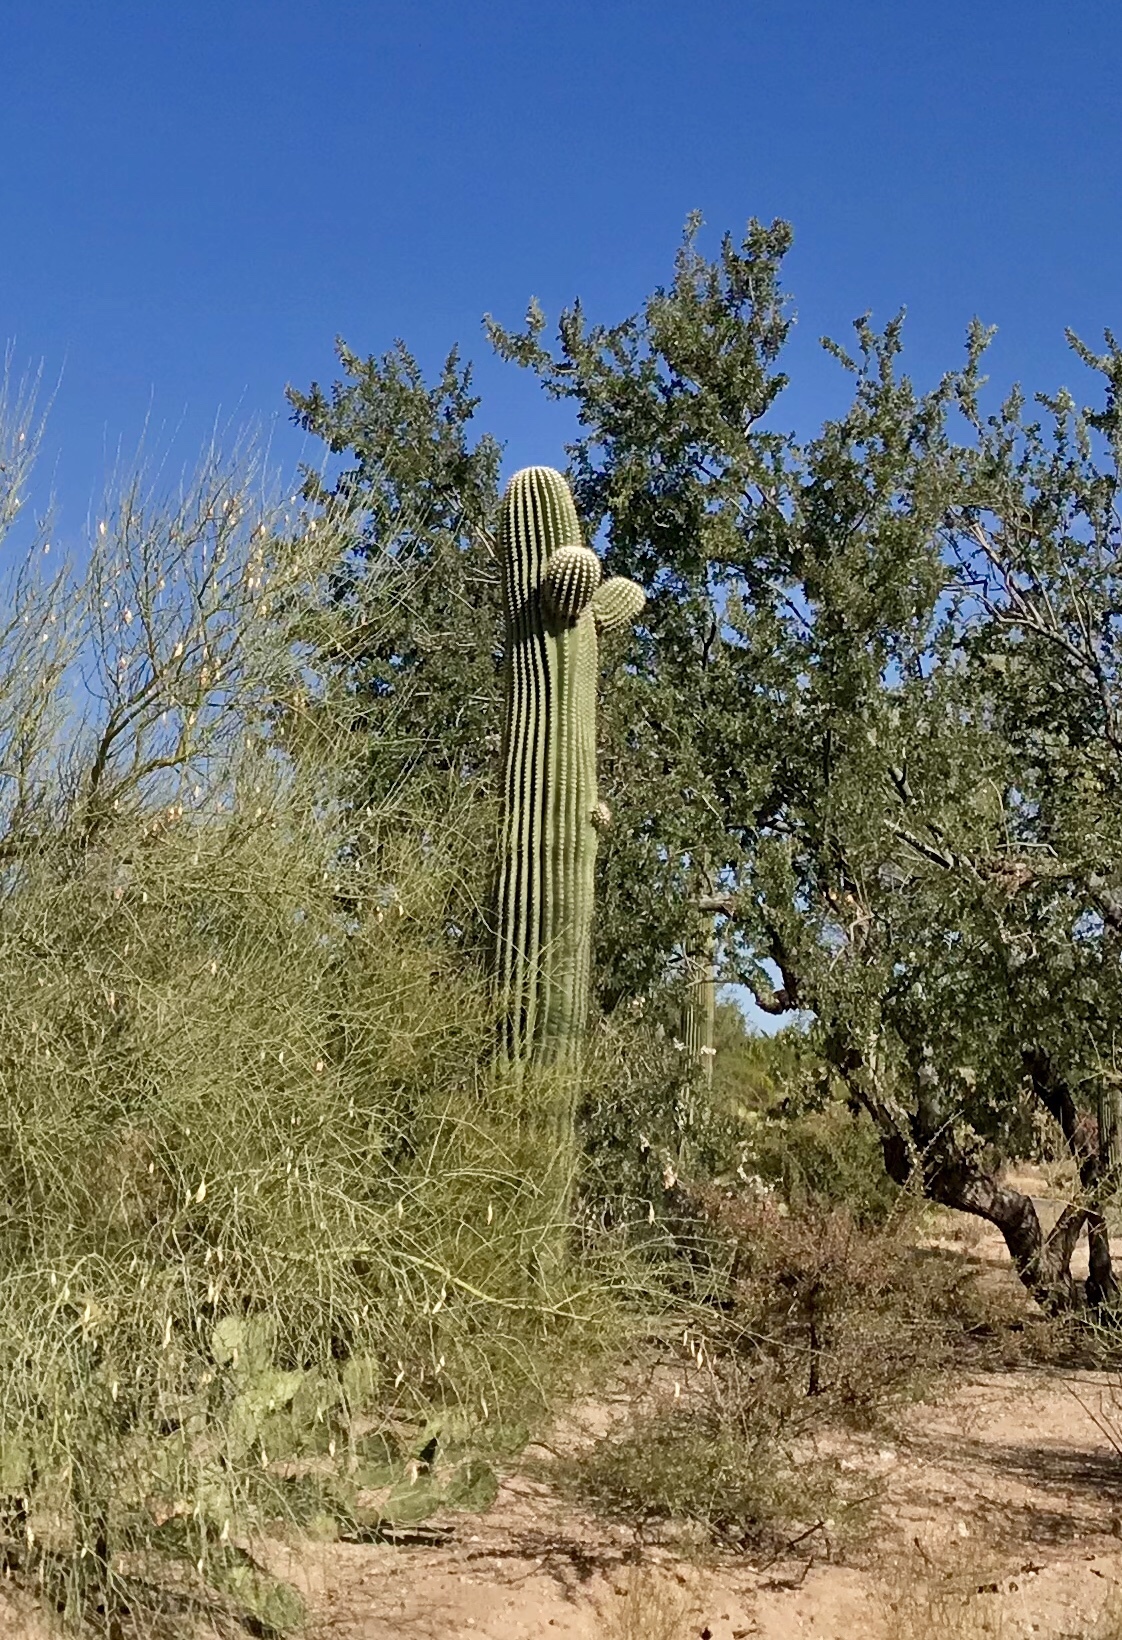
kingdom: Plantae
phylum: Tracheophyta
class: Magnoliopsida
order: Caryophyllales
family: Cactaceae
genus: Carnegiea
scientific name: Carnegiea gigantea
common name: Saguaro
